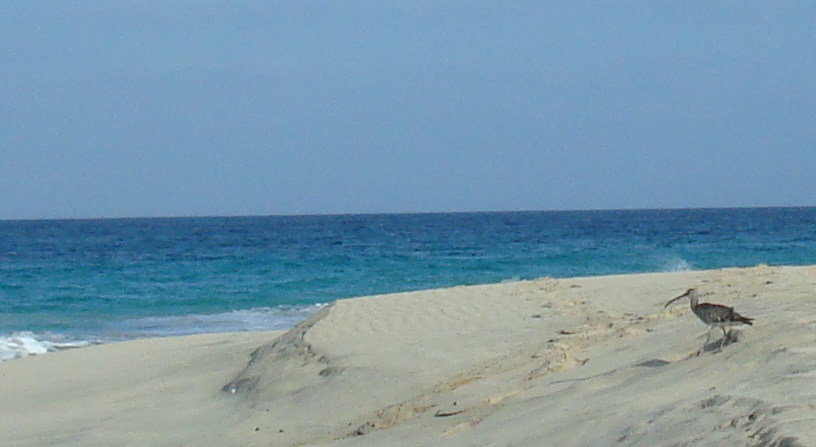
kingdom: Animalia
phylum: Chordata
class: Aves
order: Charadriiformes
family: Scolopacidae
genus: Numenius
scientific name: Numenius phaeopus
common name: Whimbrel
